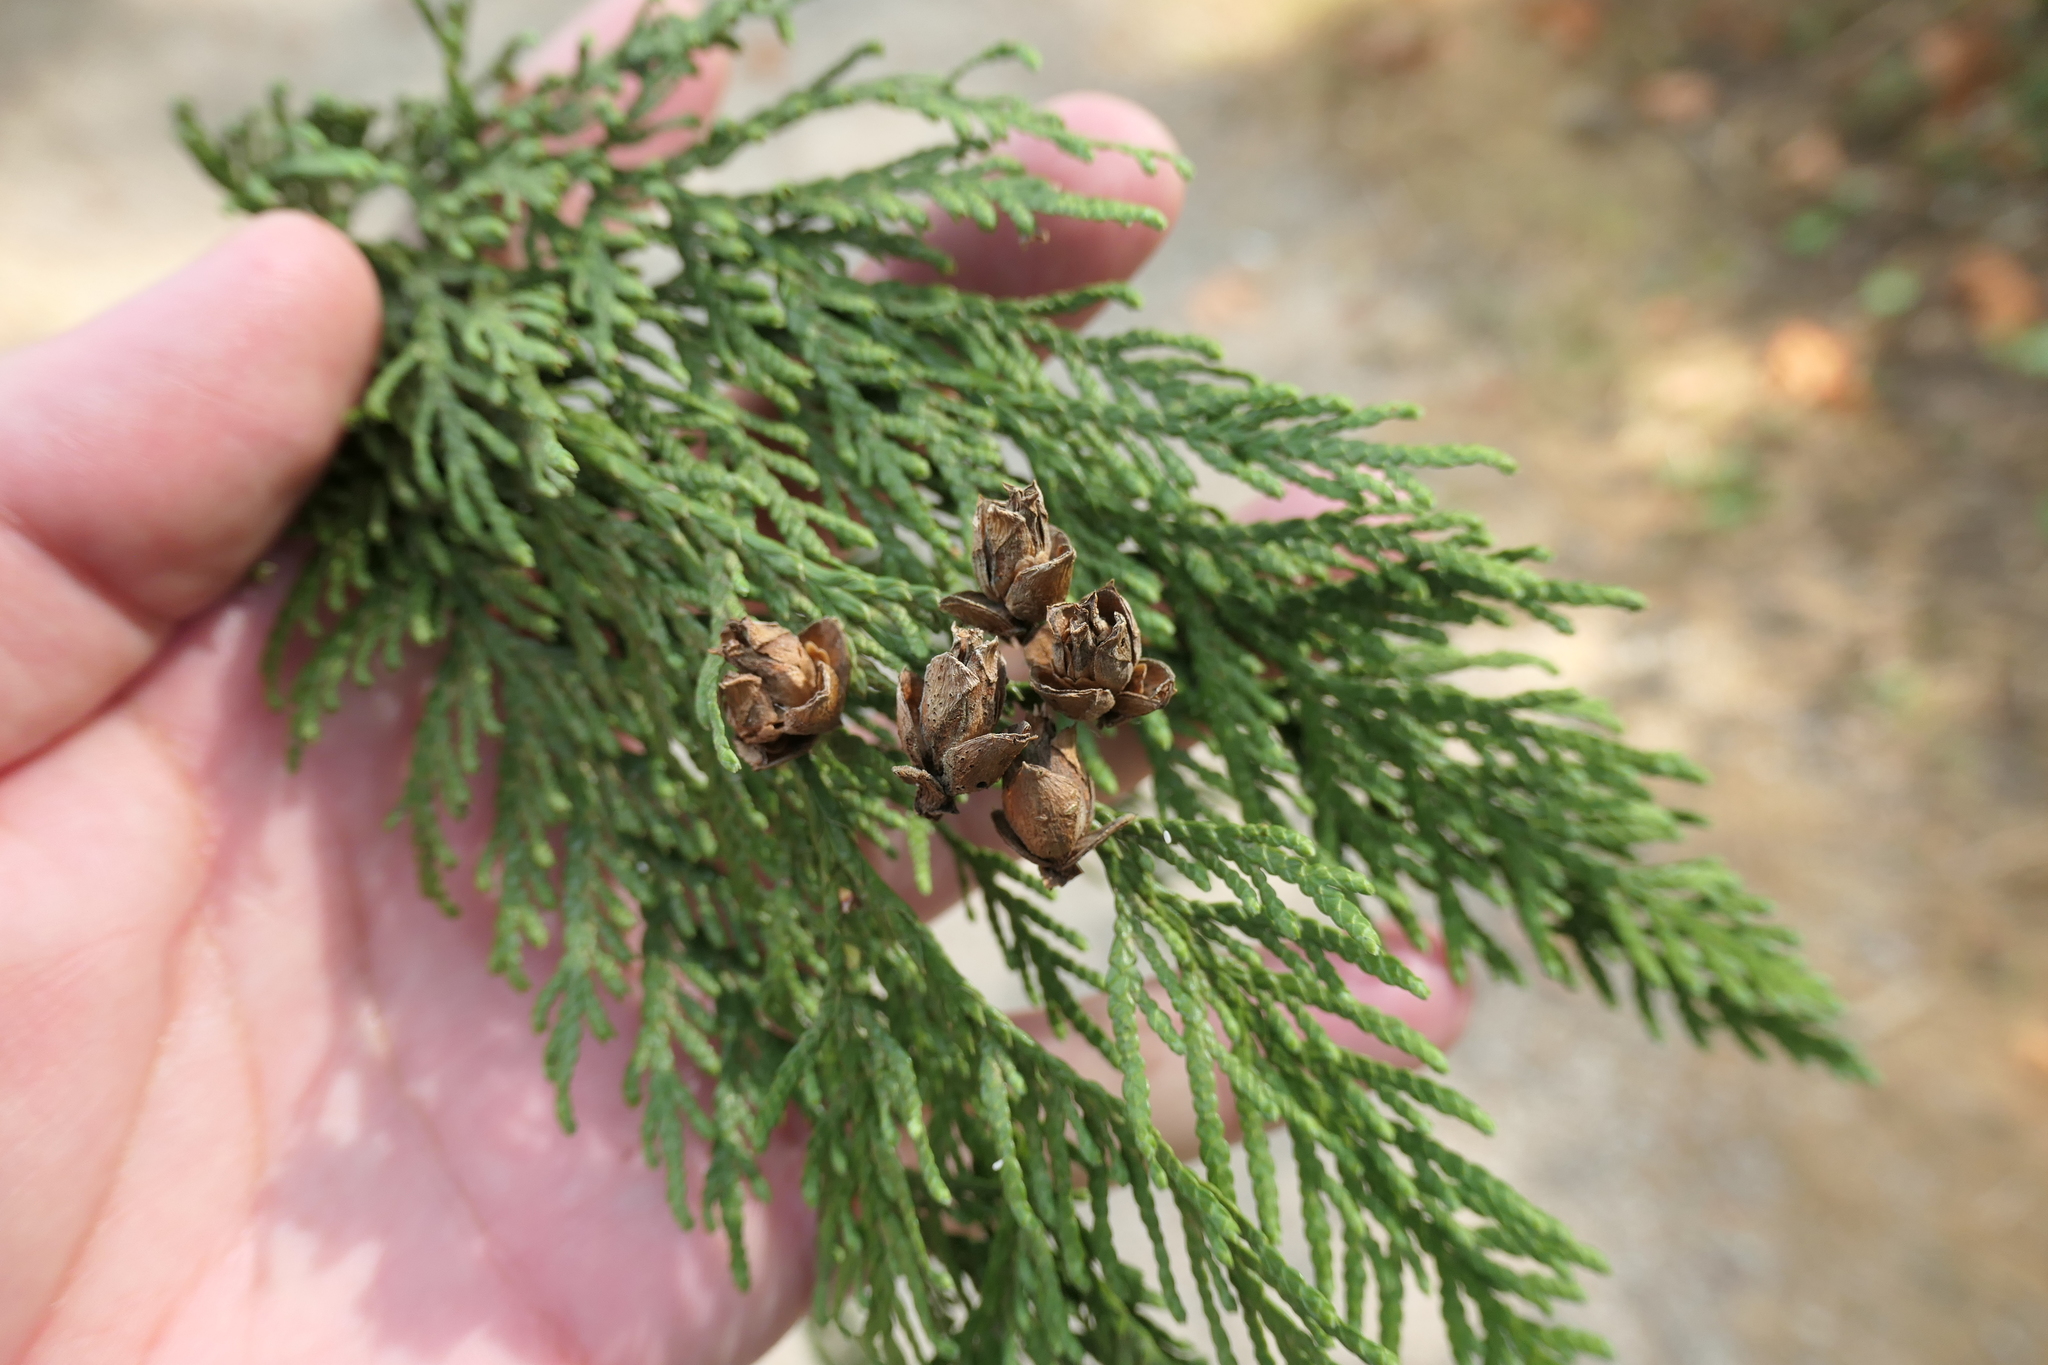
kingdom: Plantae
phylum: Tracheophyta
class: Pinopsida
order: Pinales
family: Cupressaceae
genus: Thuja
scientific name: Thuja plicata
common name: Western red-cedar
